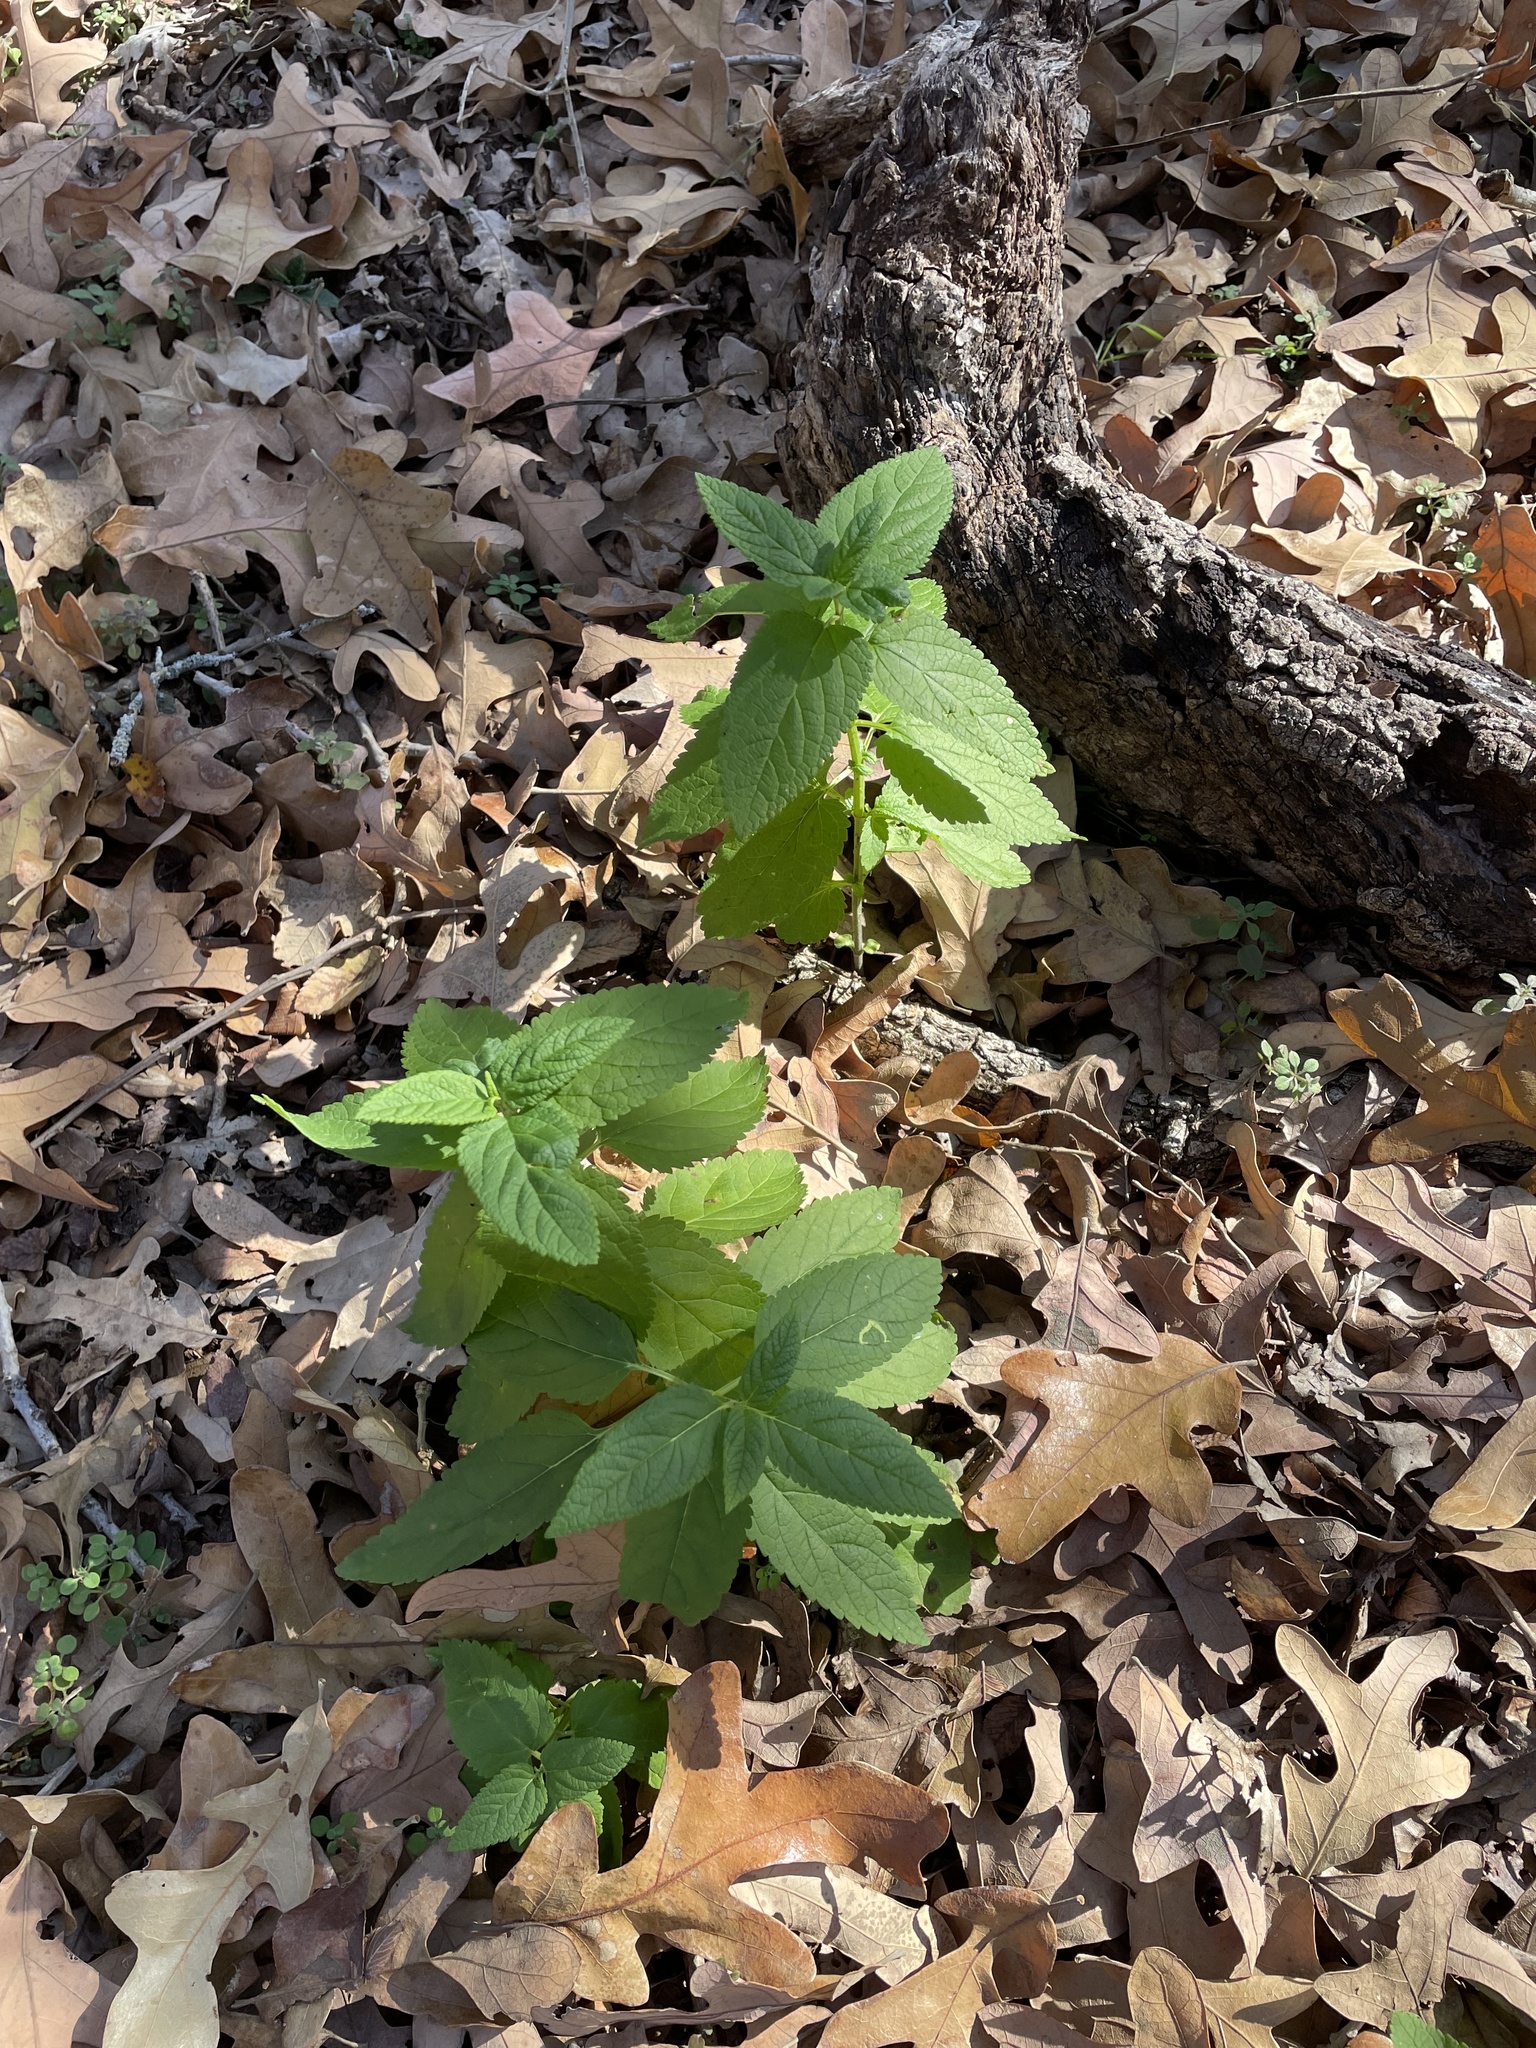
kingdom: Plantae
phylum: Tracheophyta
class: Magnoliopsida
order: Lamiales
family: Lamiaceae
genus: Teucrium
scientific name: Teucrium canadense
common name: American germander
